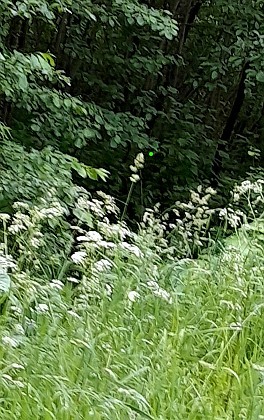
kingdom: Plantae
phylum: Tracheophyta
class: Liliopsida
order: Poales
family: Poaceae
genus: Dactylis
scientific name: Dactylis glomerata
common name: Orchardgrass
